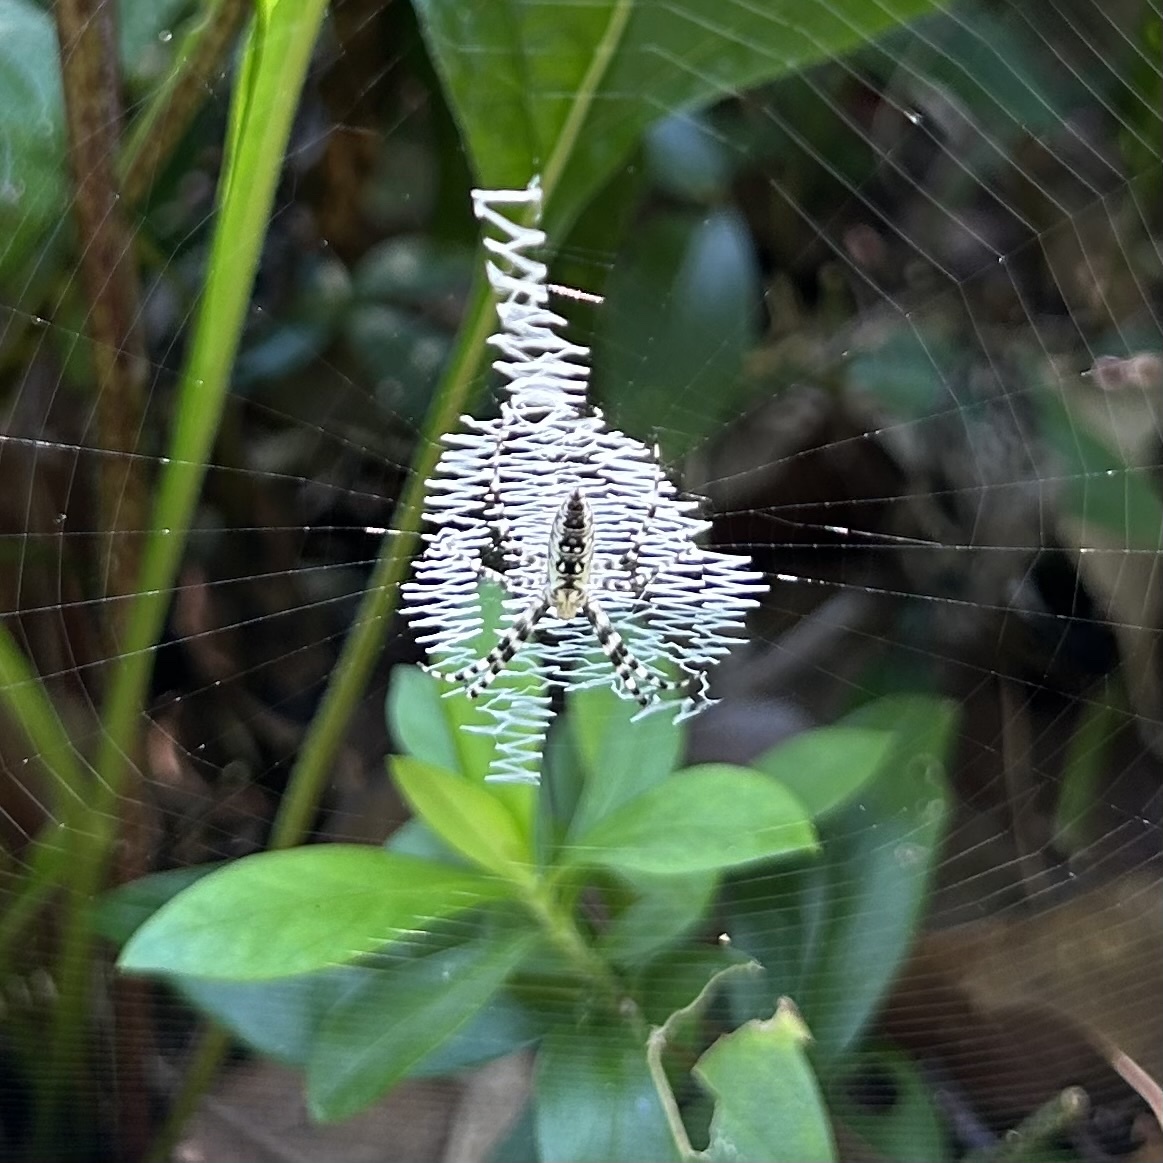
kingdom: Animalia
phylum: Arthropoda
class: Arachnida
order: Araneae
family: Araneidae
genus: Argiope
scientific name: Argiope aurantia
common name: Orb weavers
